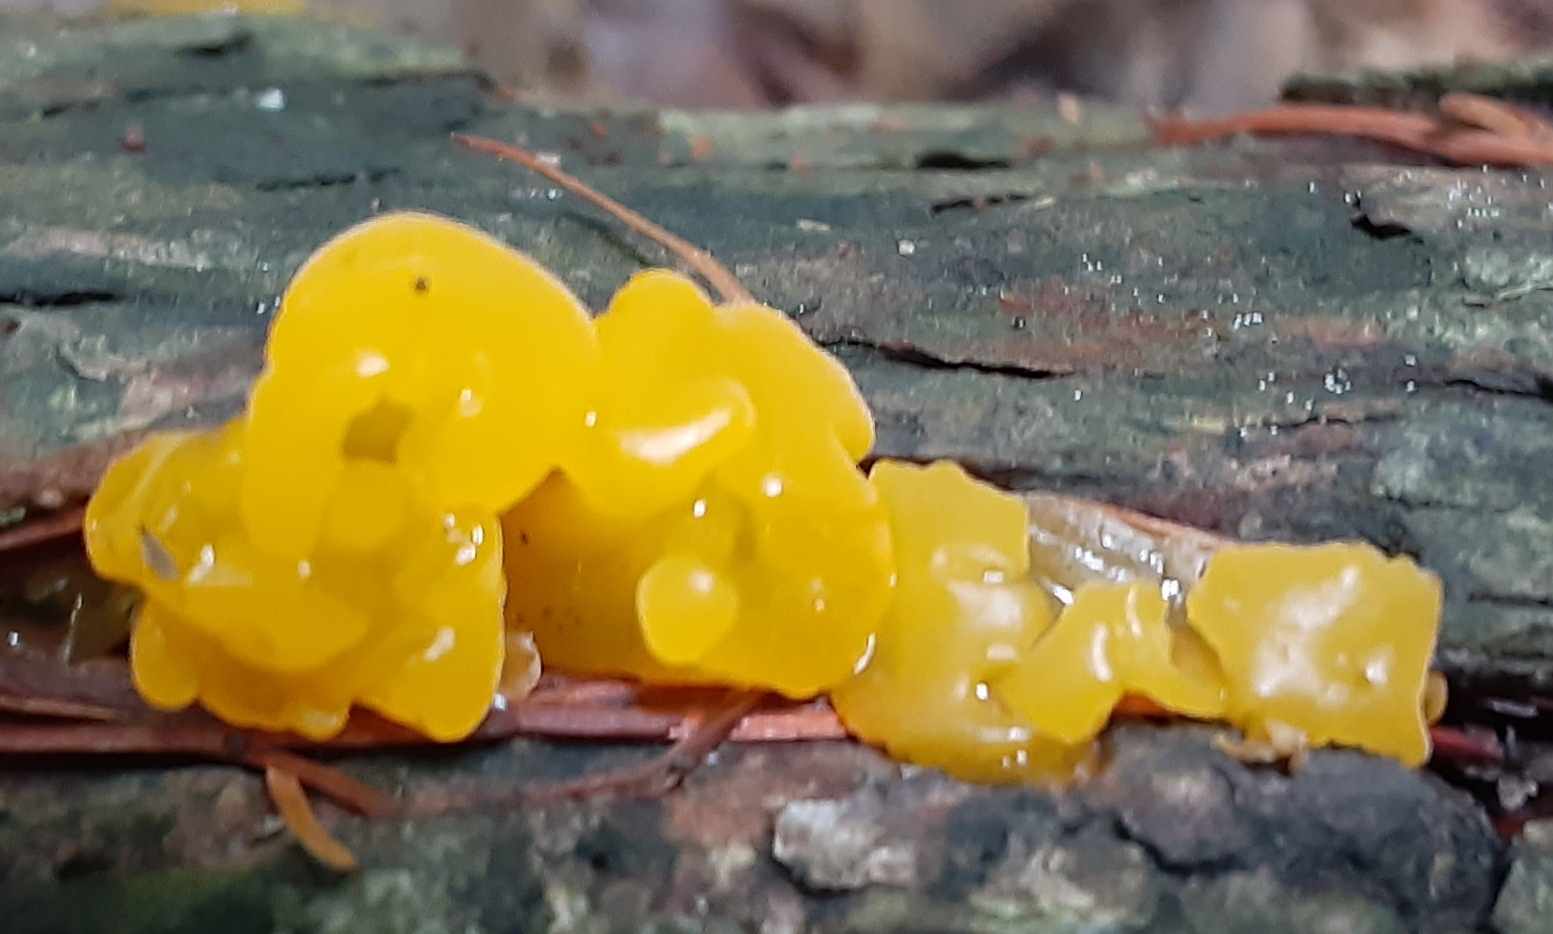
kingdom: Fungi
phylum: Basidiomycota
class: Dacrymycetes
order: Dacrymycetales
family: Dacrymycetaceae
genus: Dacrymyces
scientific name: Dacrymyces chrysospermus
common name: Orange jelly spot
